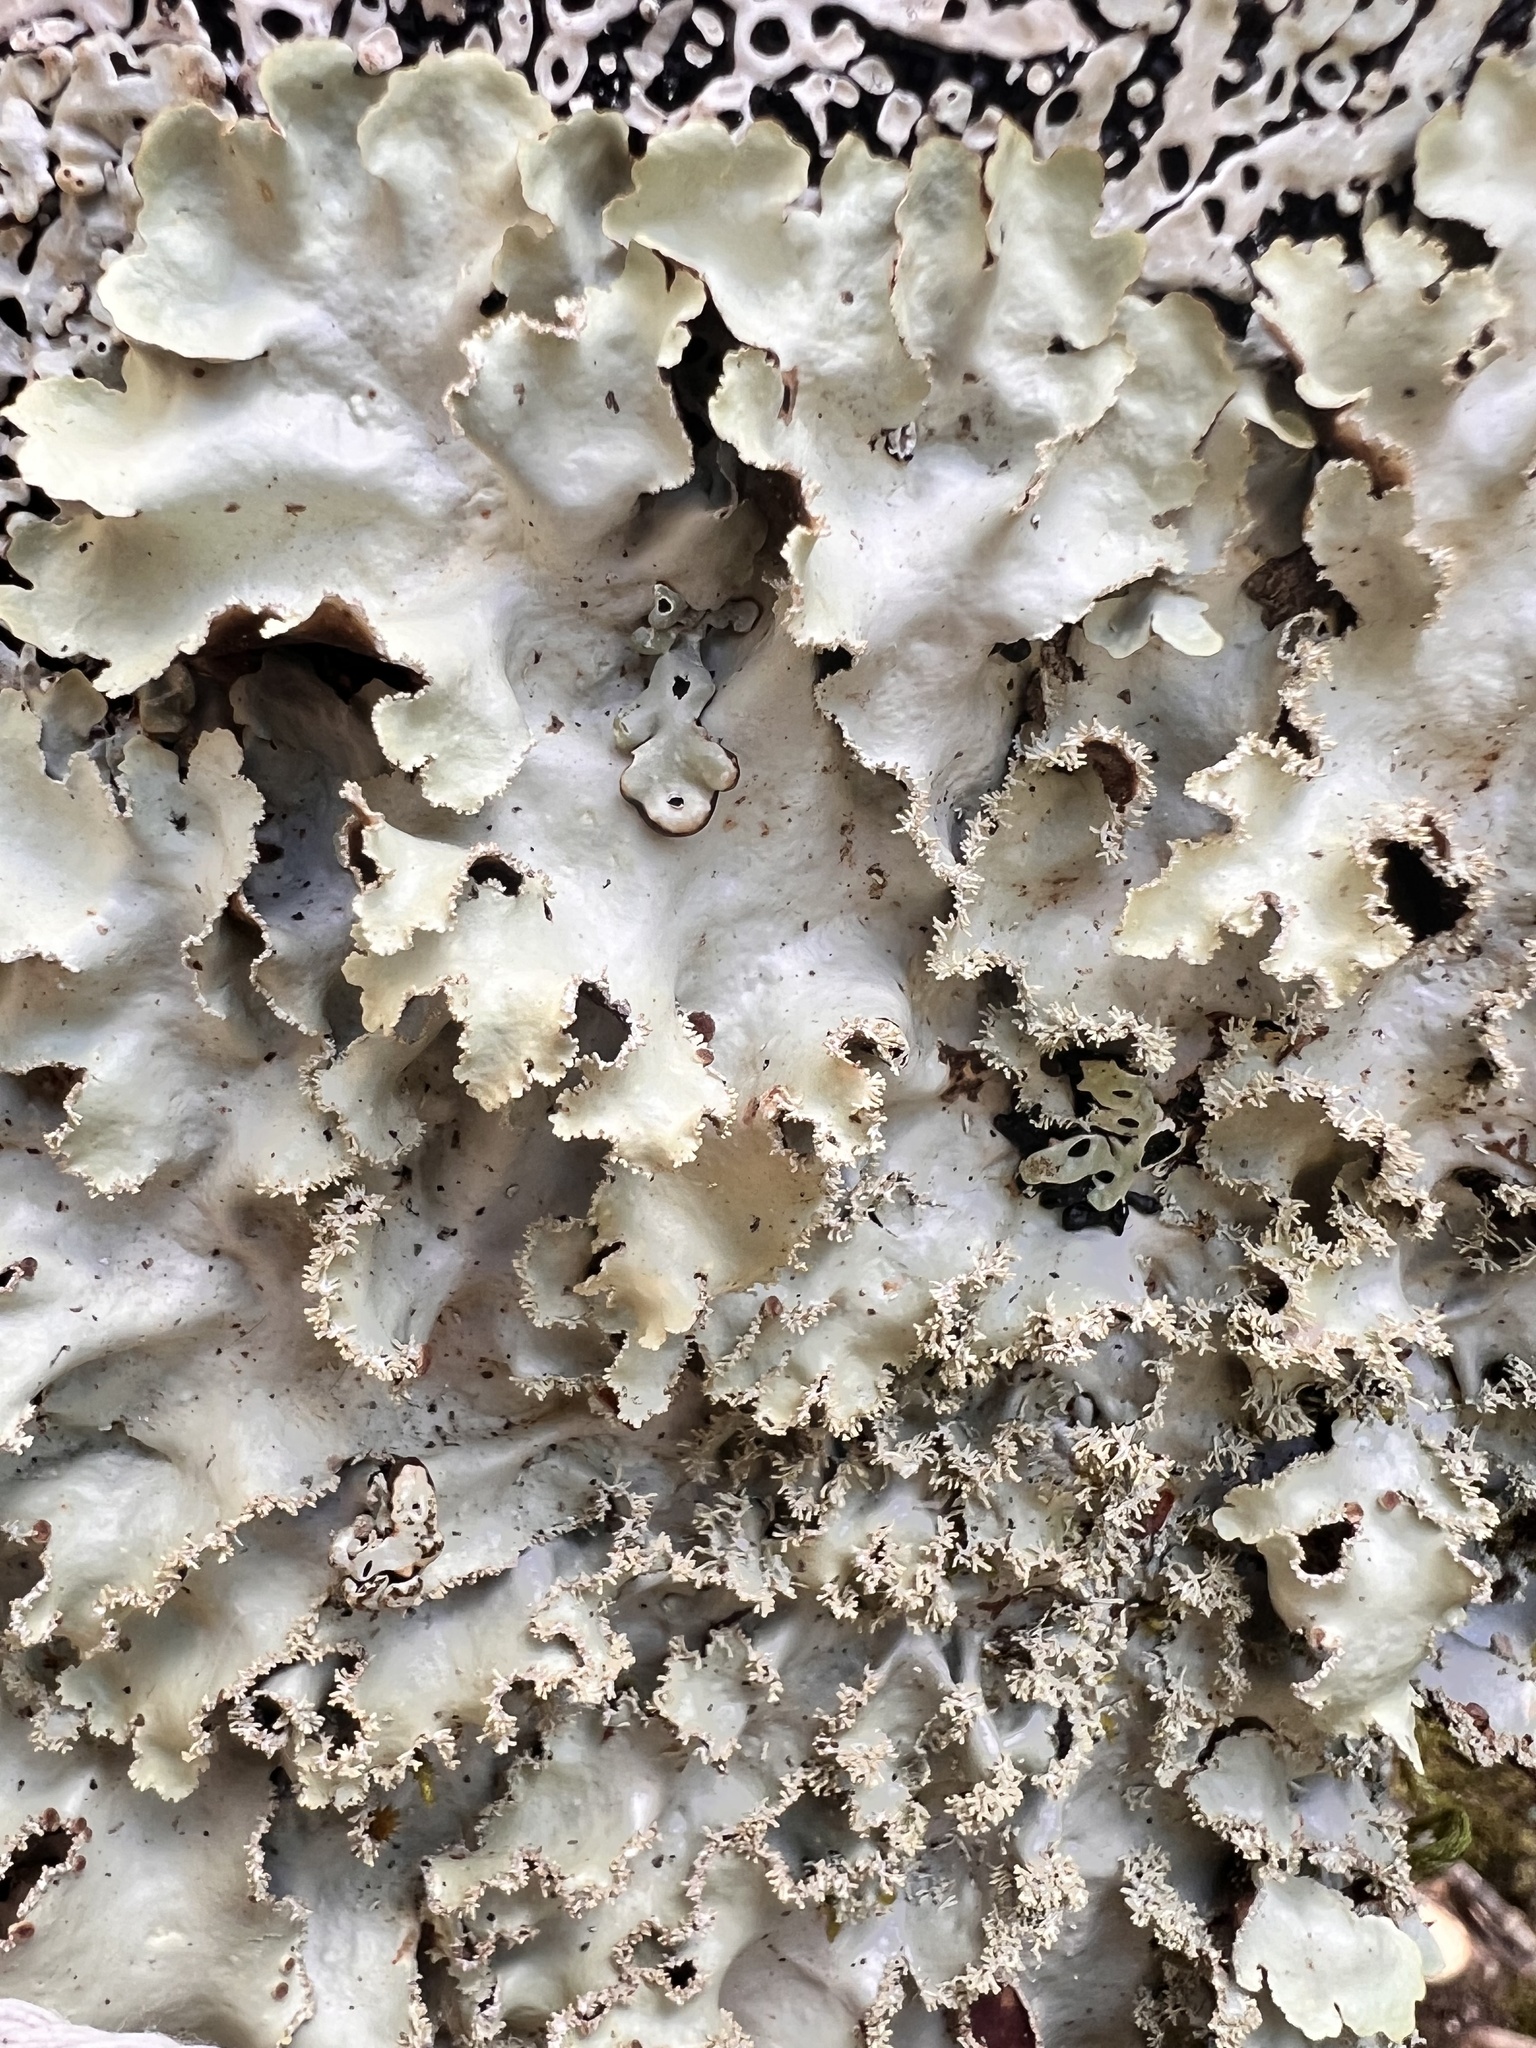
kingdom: Fungi
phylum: Ascomycota
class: Lecanoromycetes
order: Peltigerales
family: Lobariaceae
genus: Pseudocyphellaria
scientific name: Pseudocyphellaria glabra
